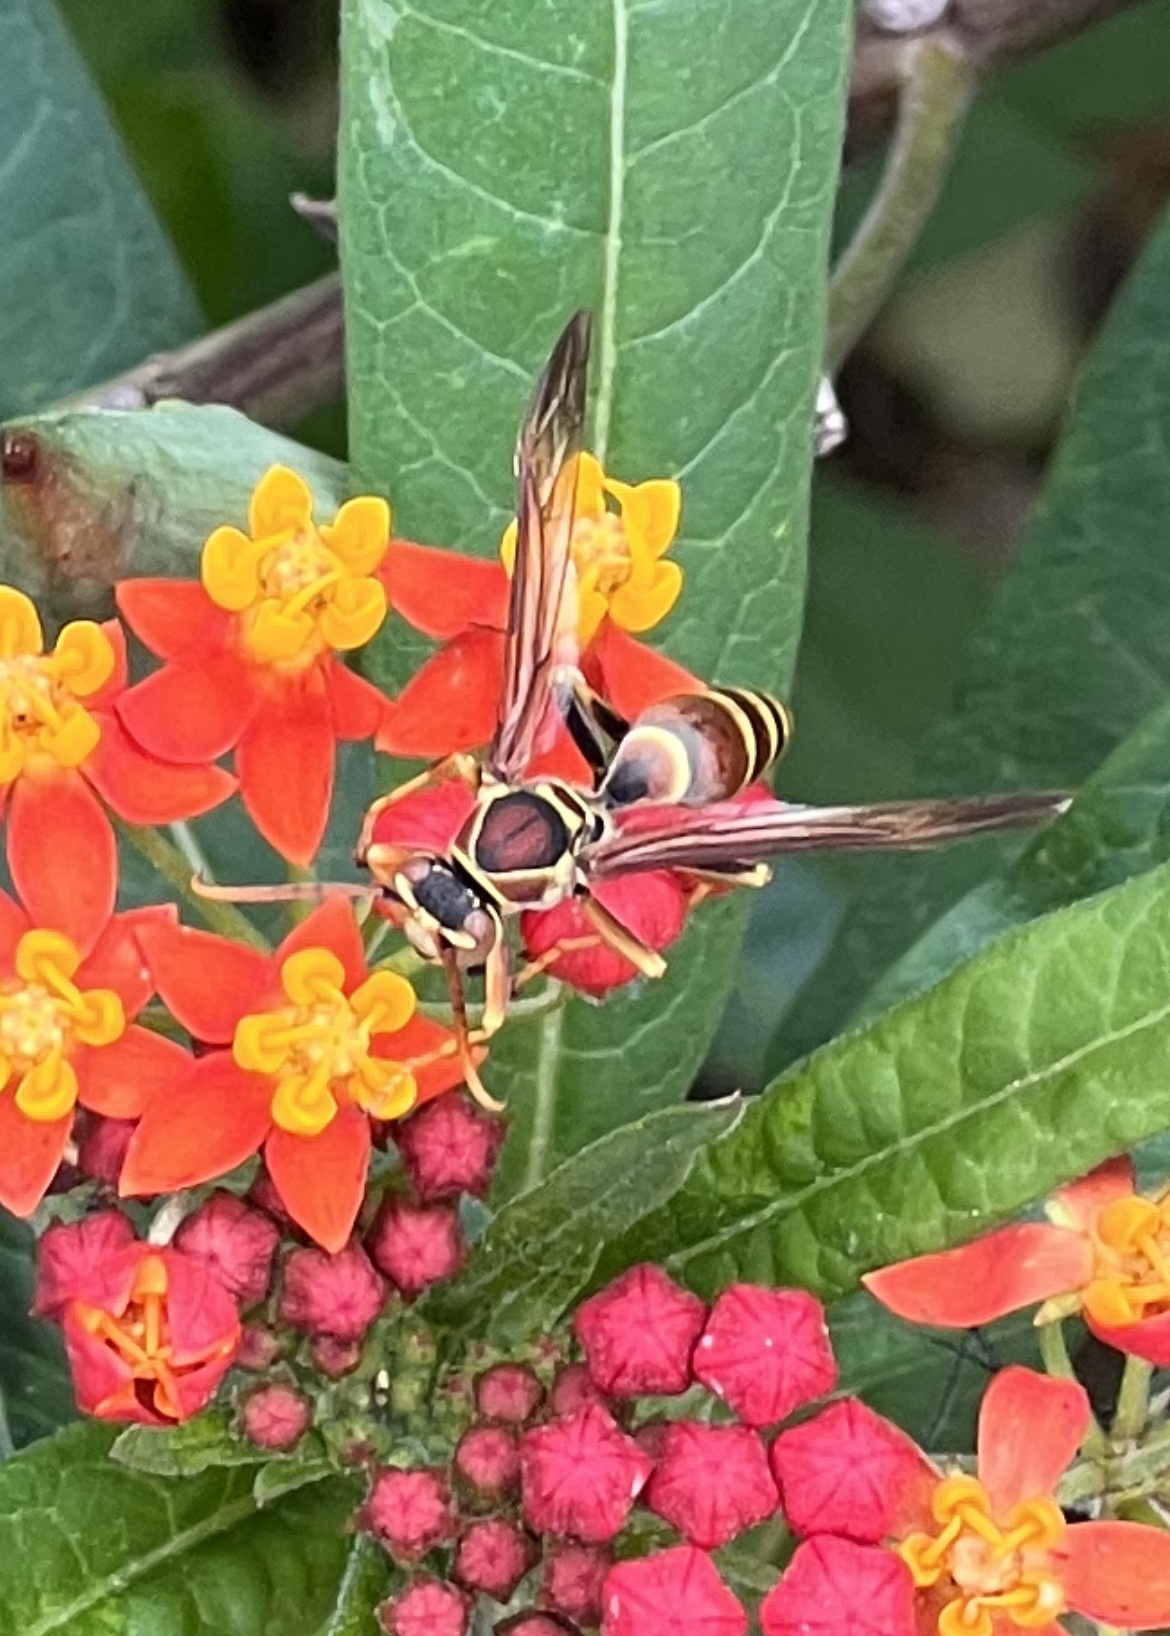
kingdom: Animalia
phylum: Arthropoda
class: Insecta
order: Hymenoptera
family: Eumenidae
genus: Polistes
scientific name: Polistes exclamans
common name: Paper wasp
